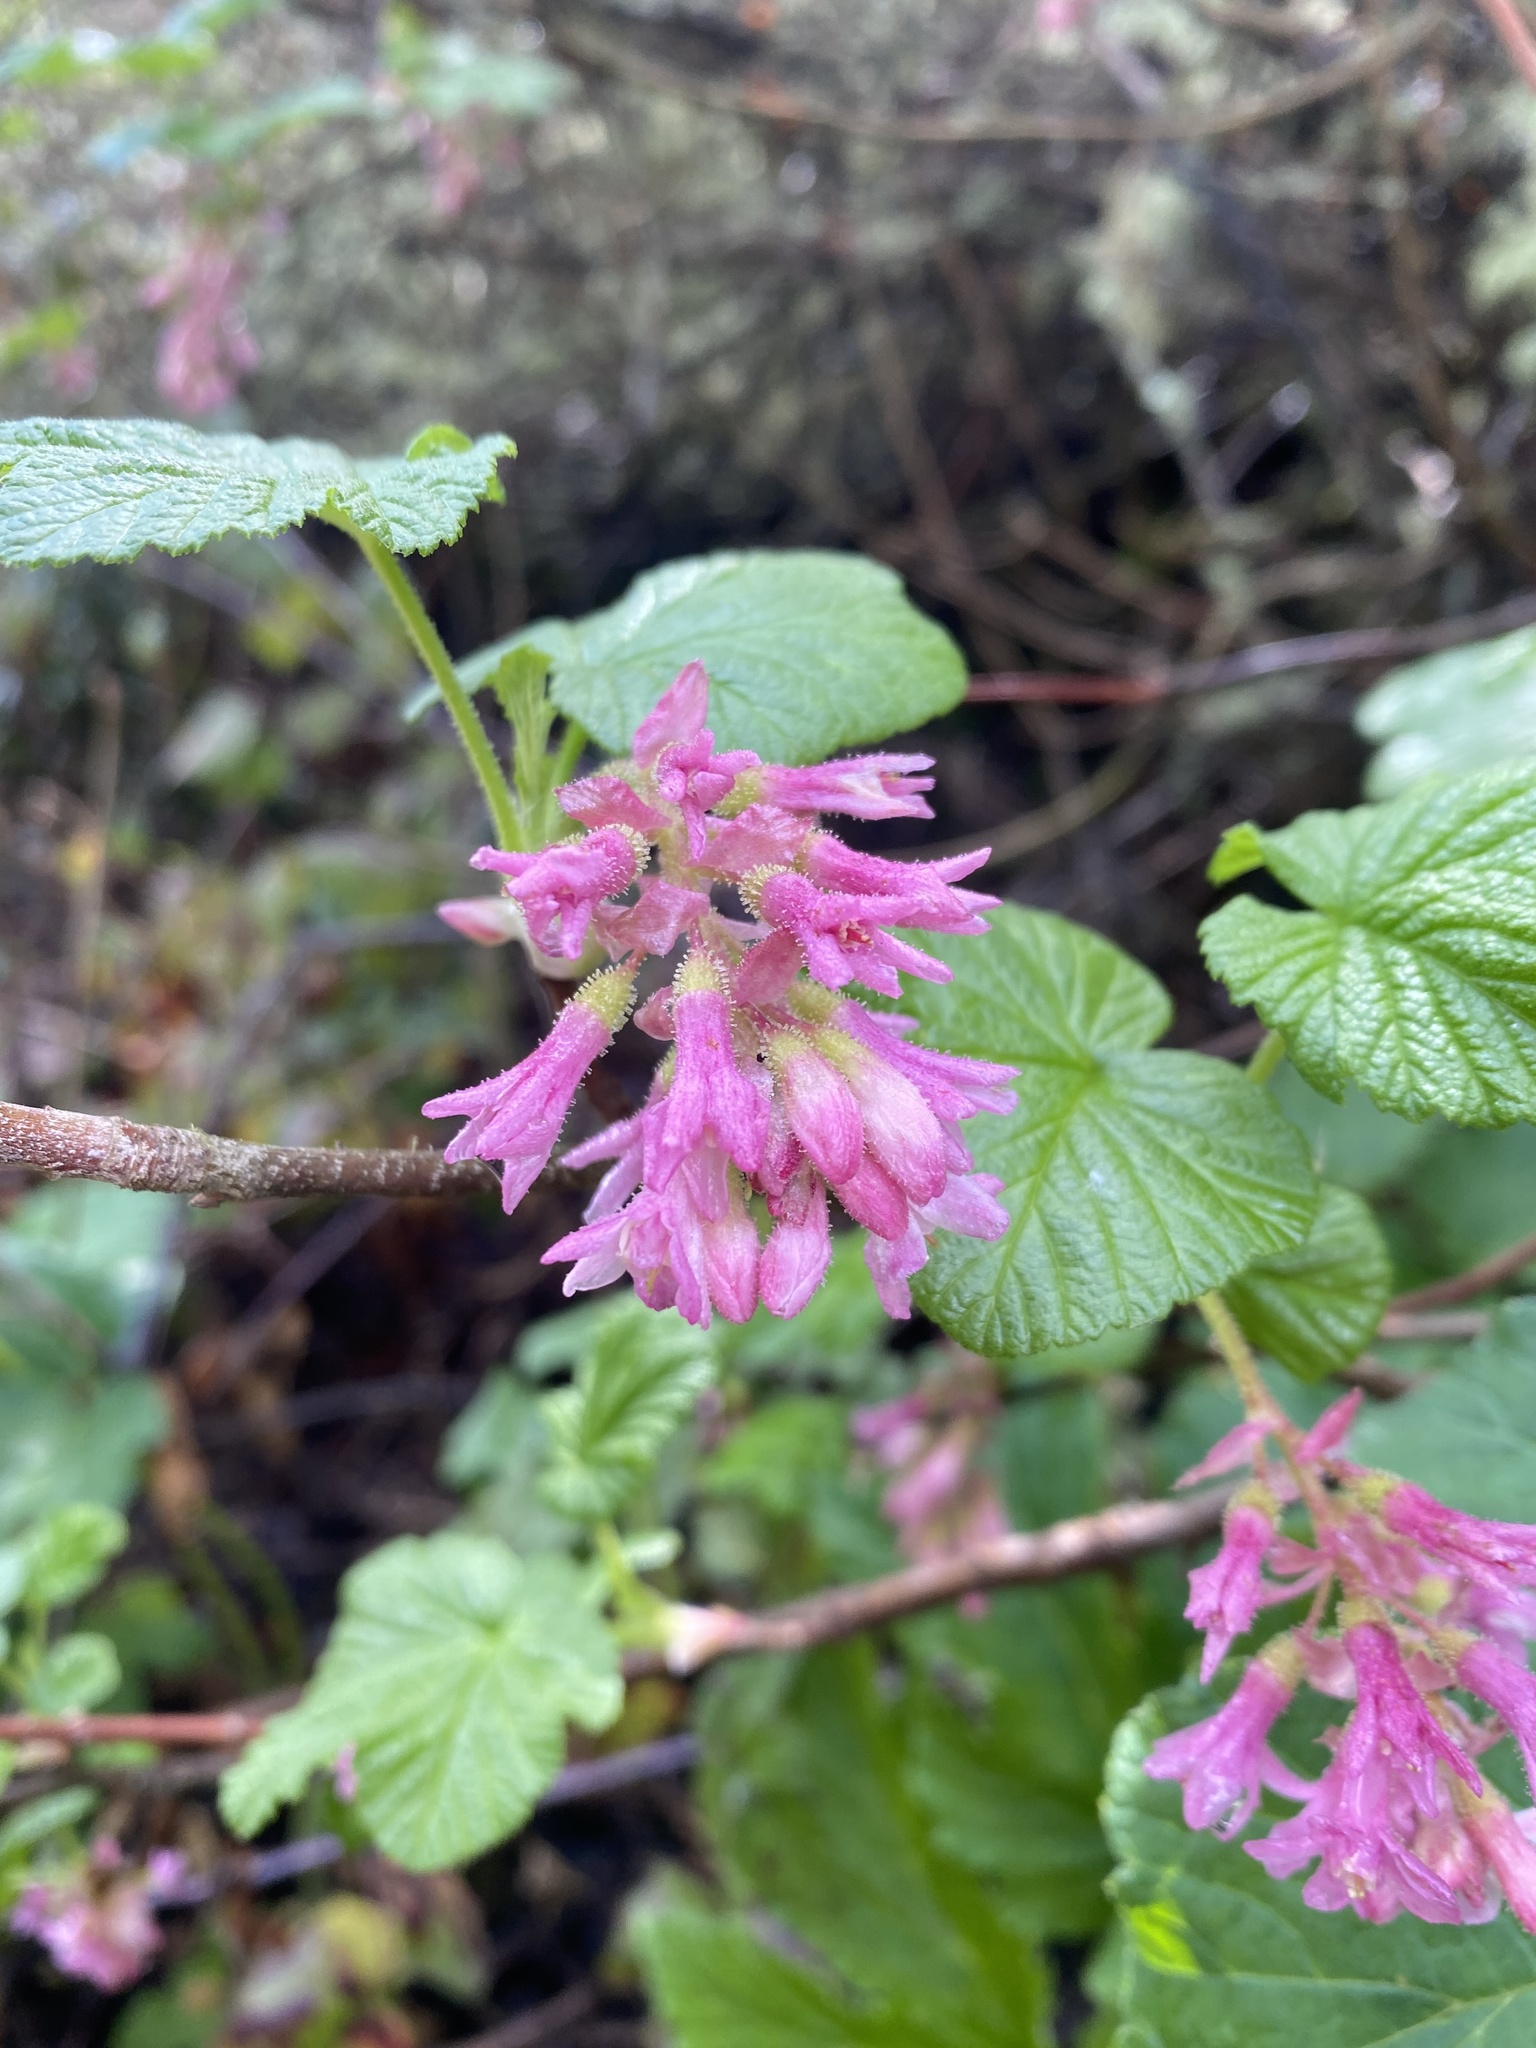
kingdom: Plantae
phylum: Tracheophyta
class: Magnoliopsida
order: Saxifragales
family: Grossulariaceae
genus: Ribes
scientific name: Ribes sanguineum
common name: Flowering currant
